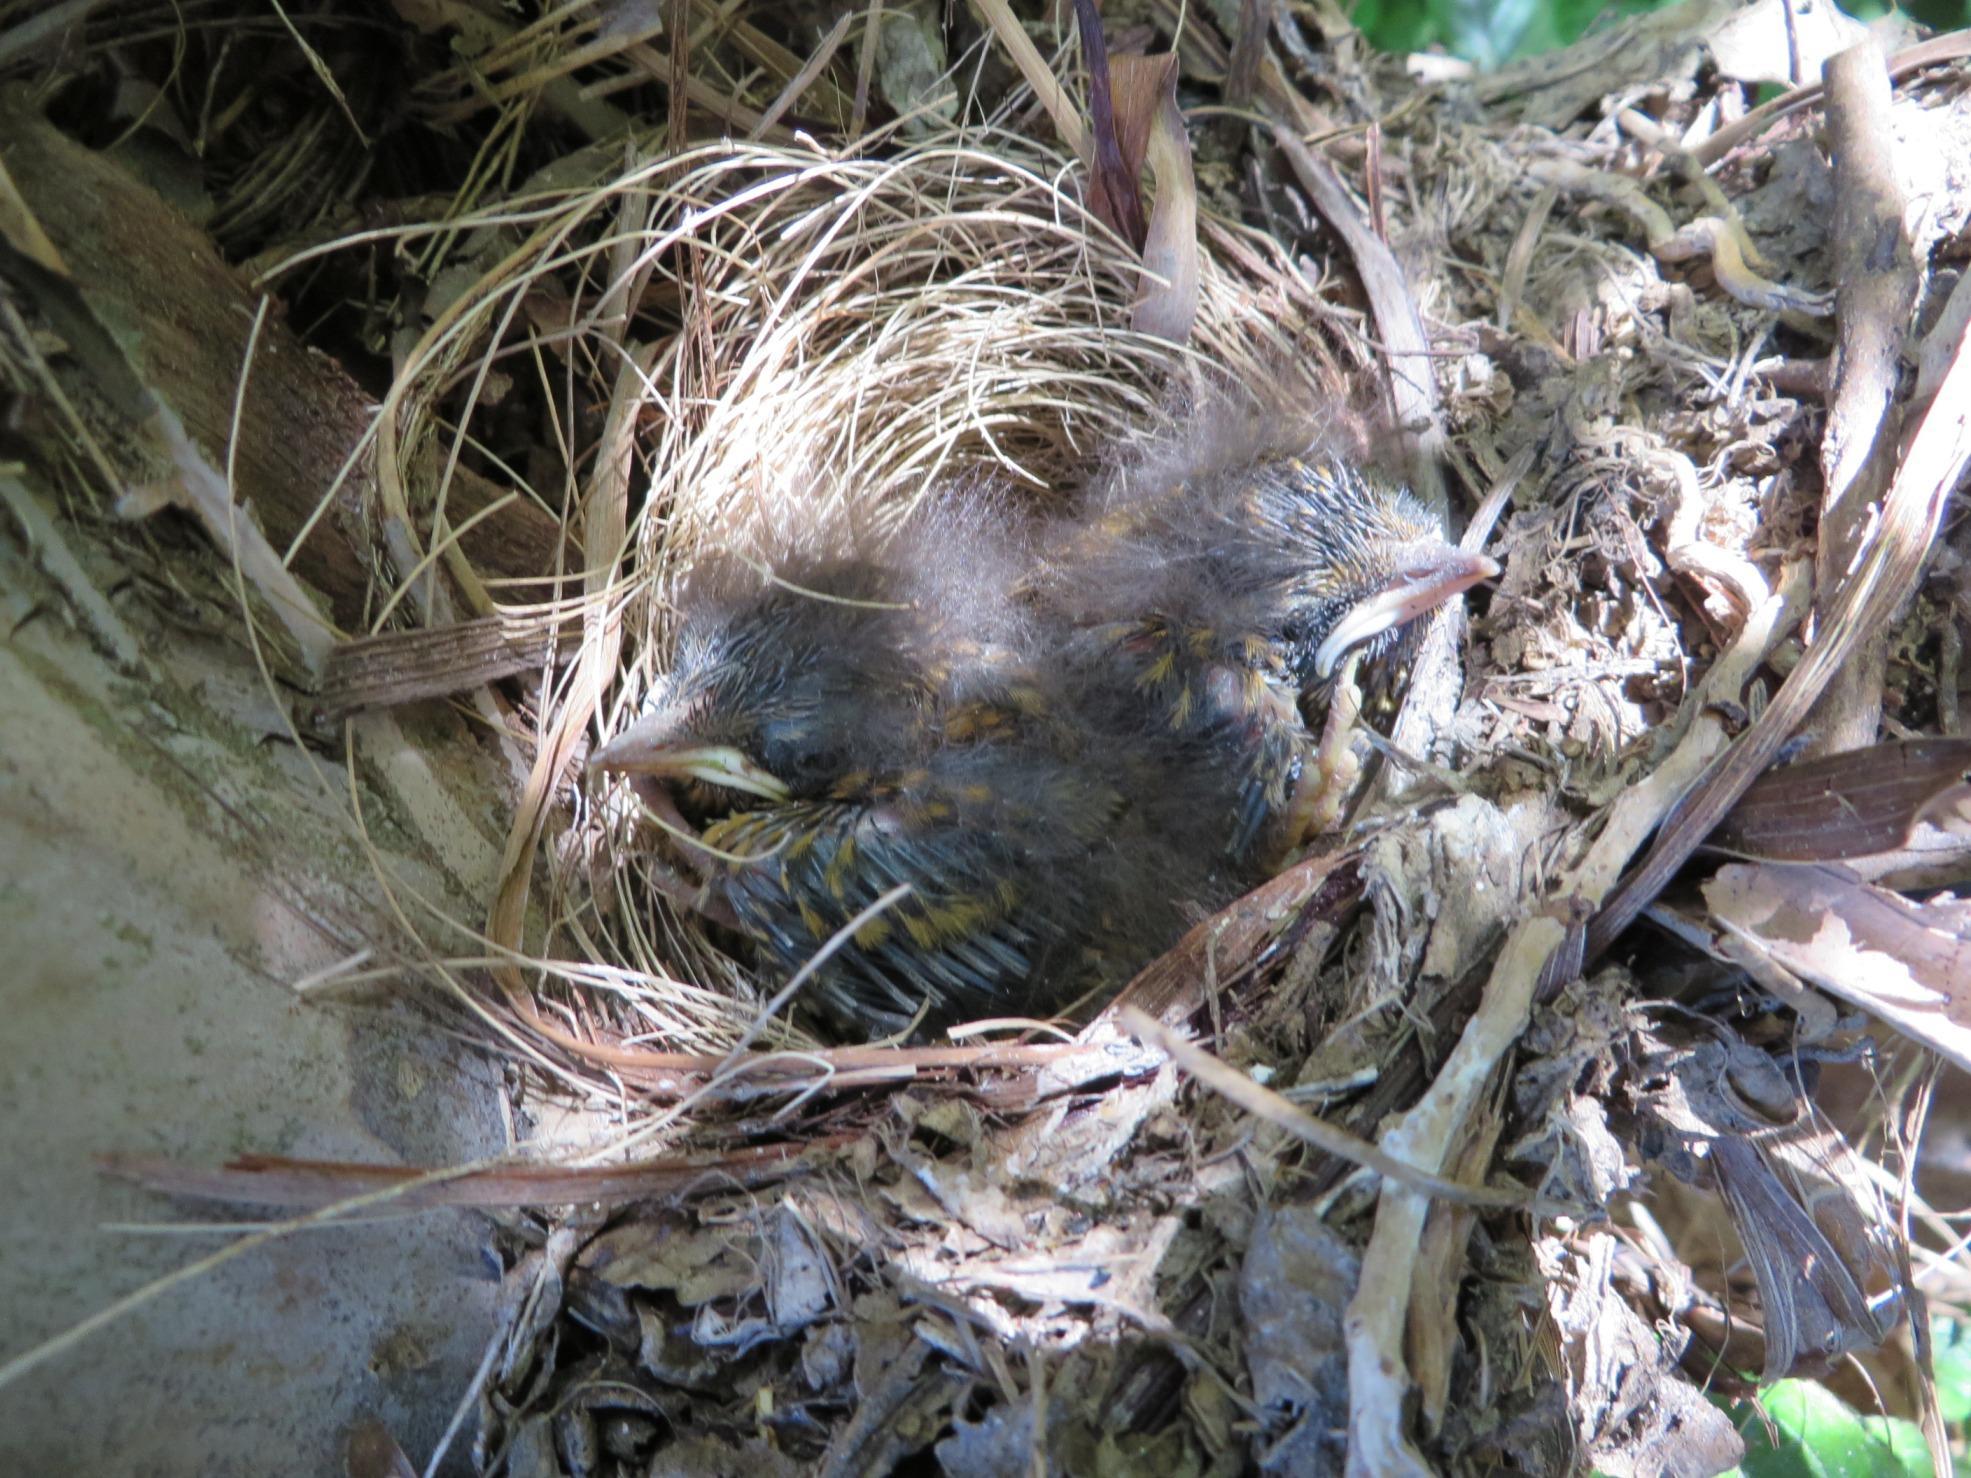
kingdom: Animalia
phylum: Chordata
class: Aves
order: Passeriformes
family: Muscicapidae
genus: Cossypha
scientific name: Cossypha caffra
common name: Cape robin-chat
